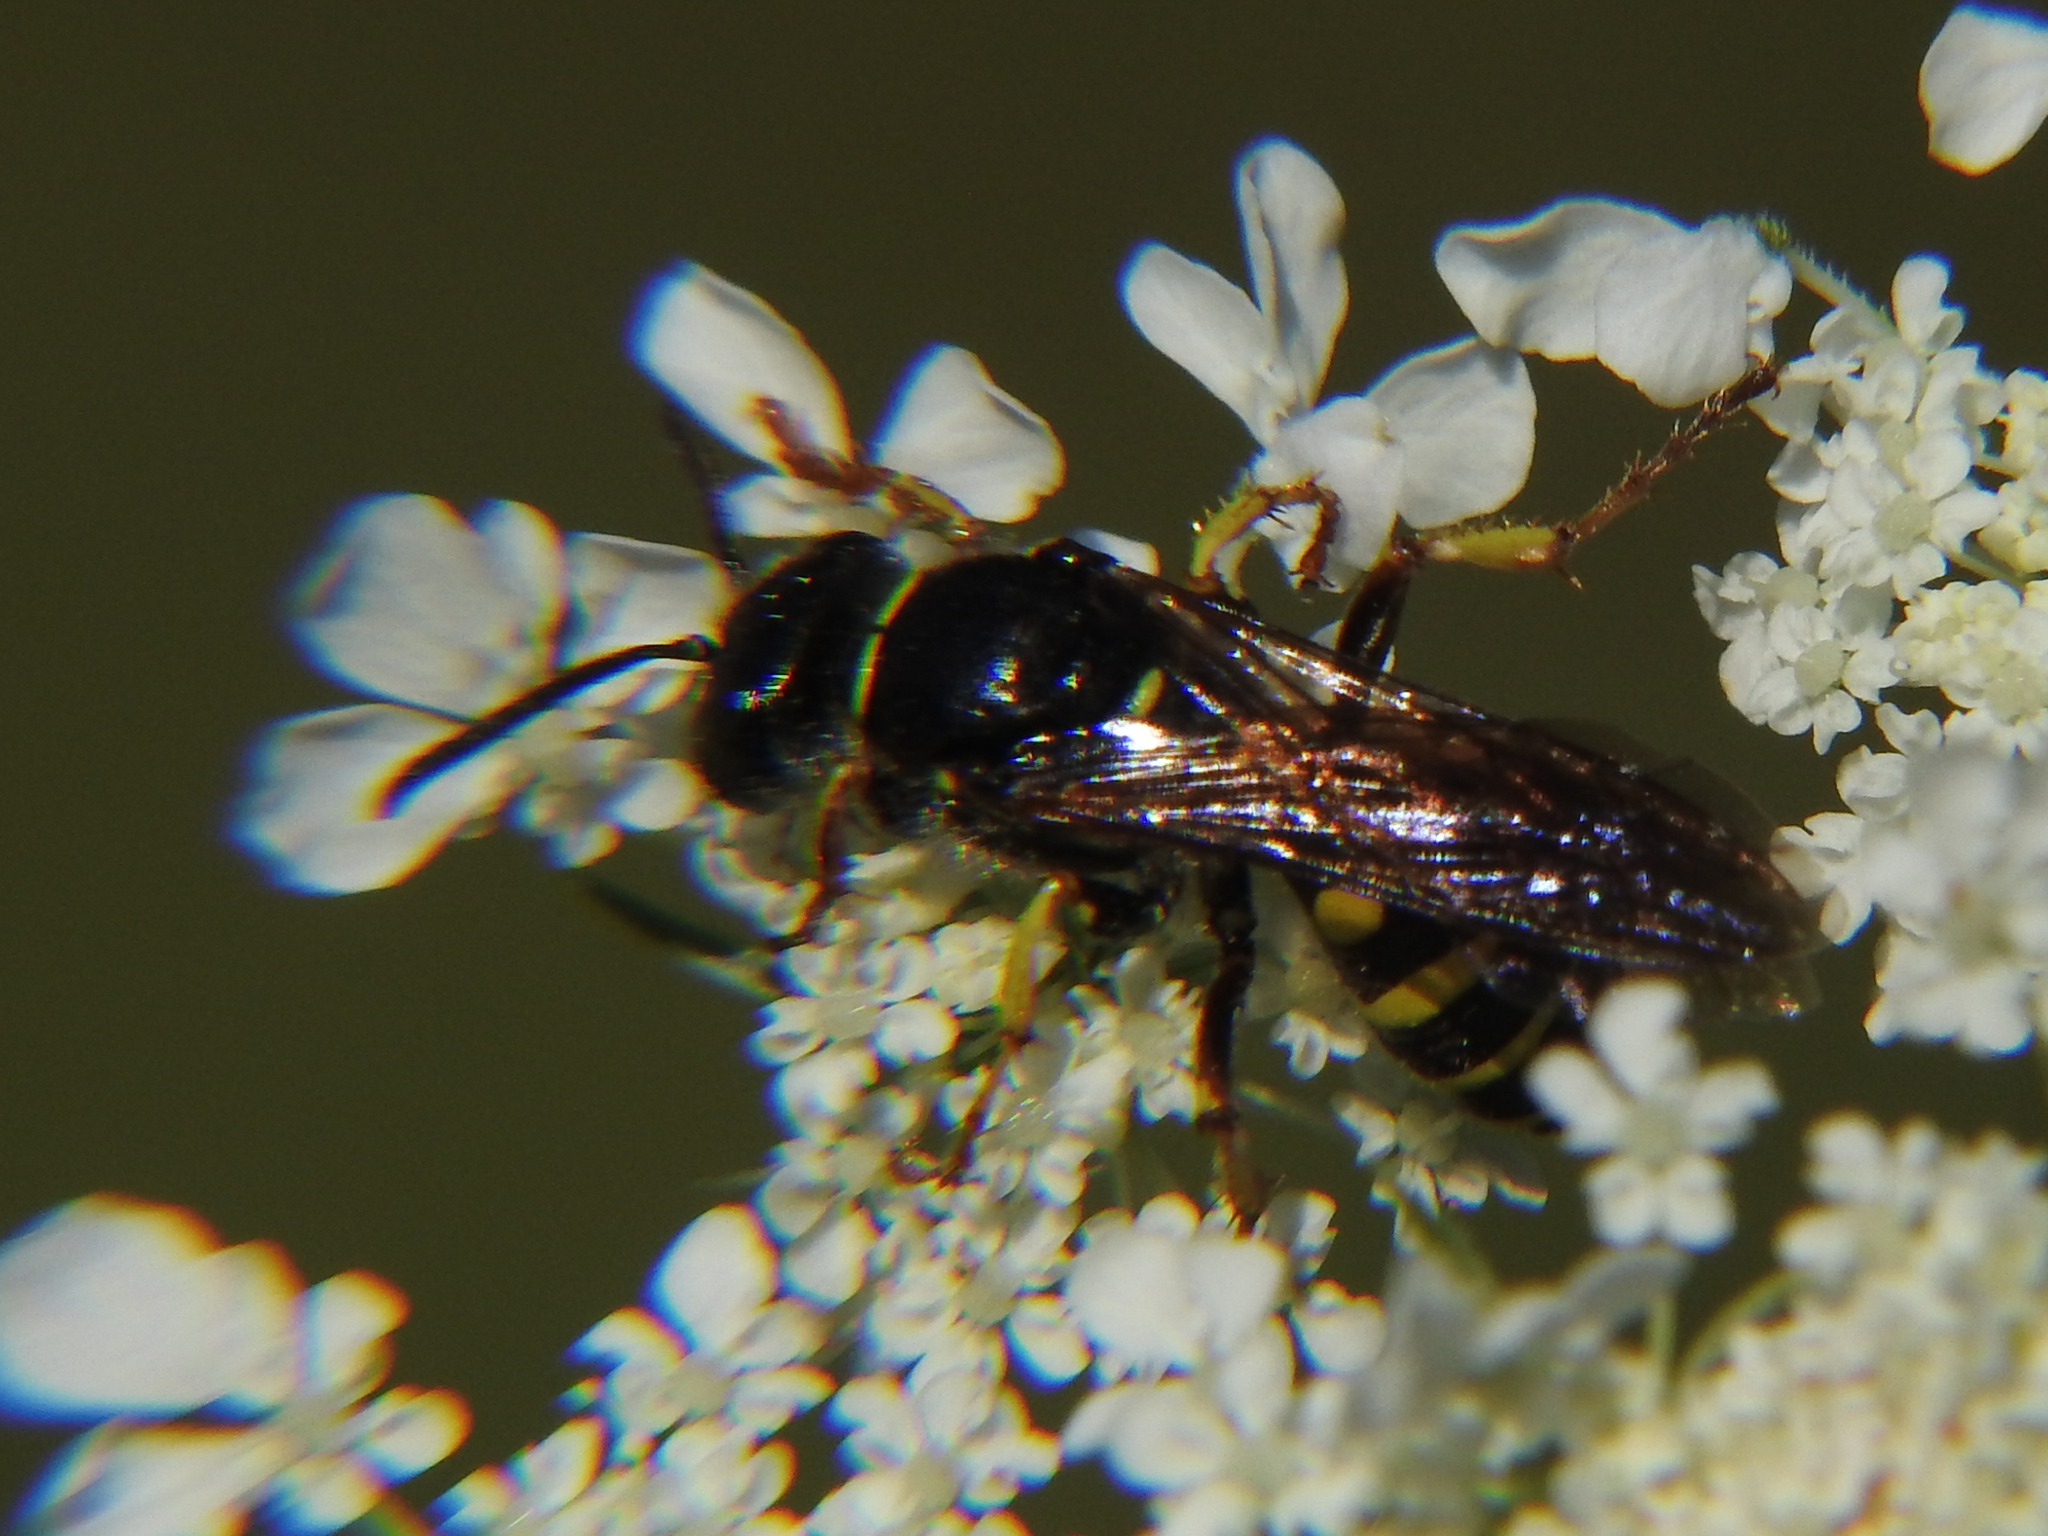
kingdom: Animalia
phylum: Arthropoda
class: Insecta
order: Hymenoptera
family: Crabronidae
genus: Aphilanthops
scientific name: Aphilanthops frigidus
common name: Queen ant kidnapper
